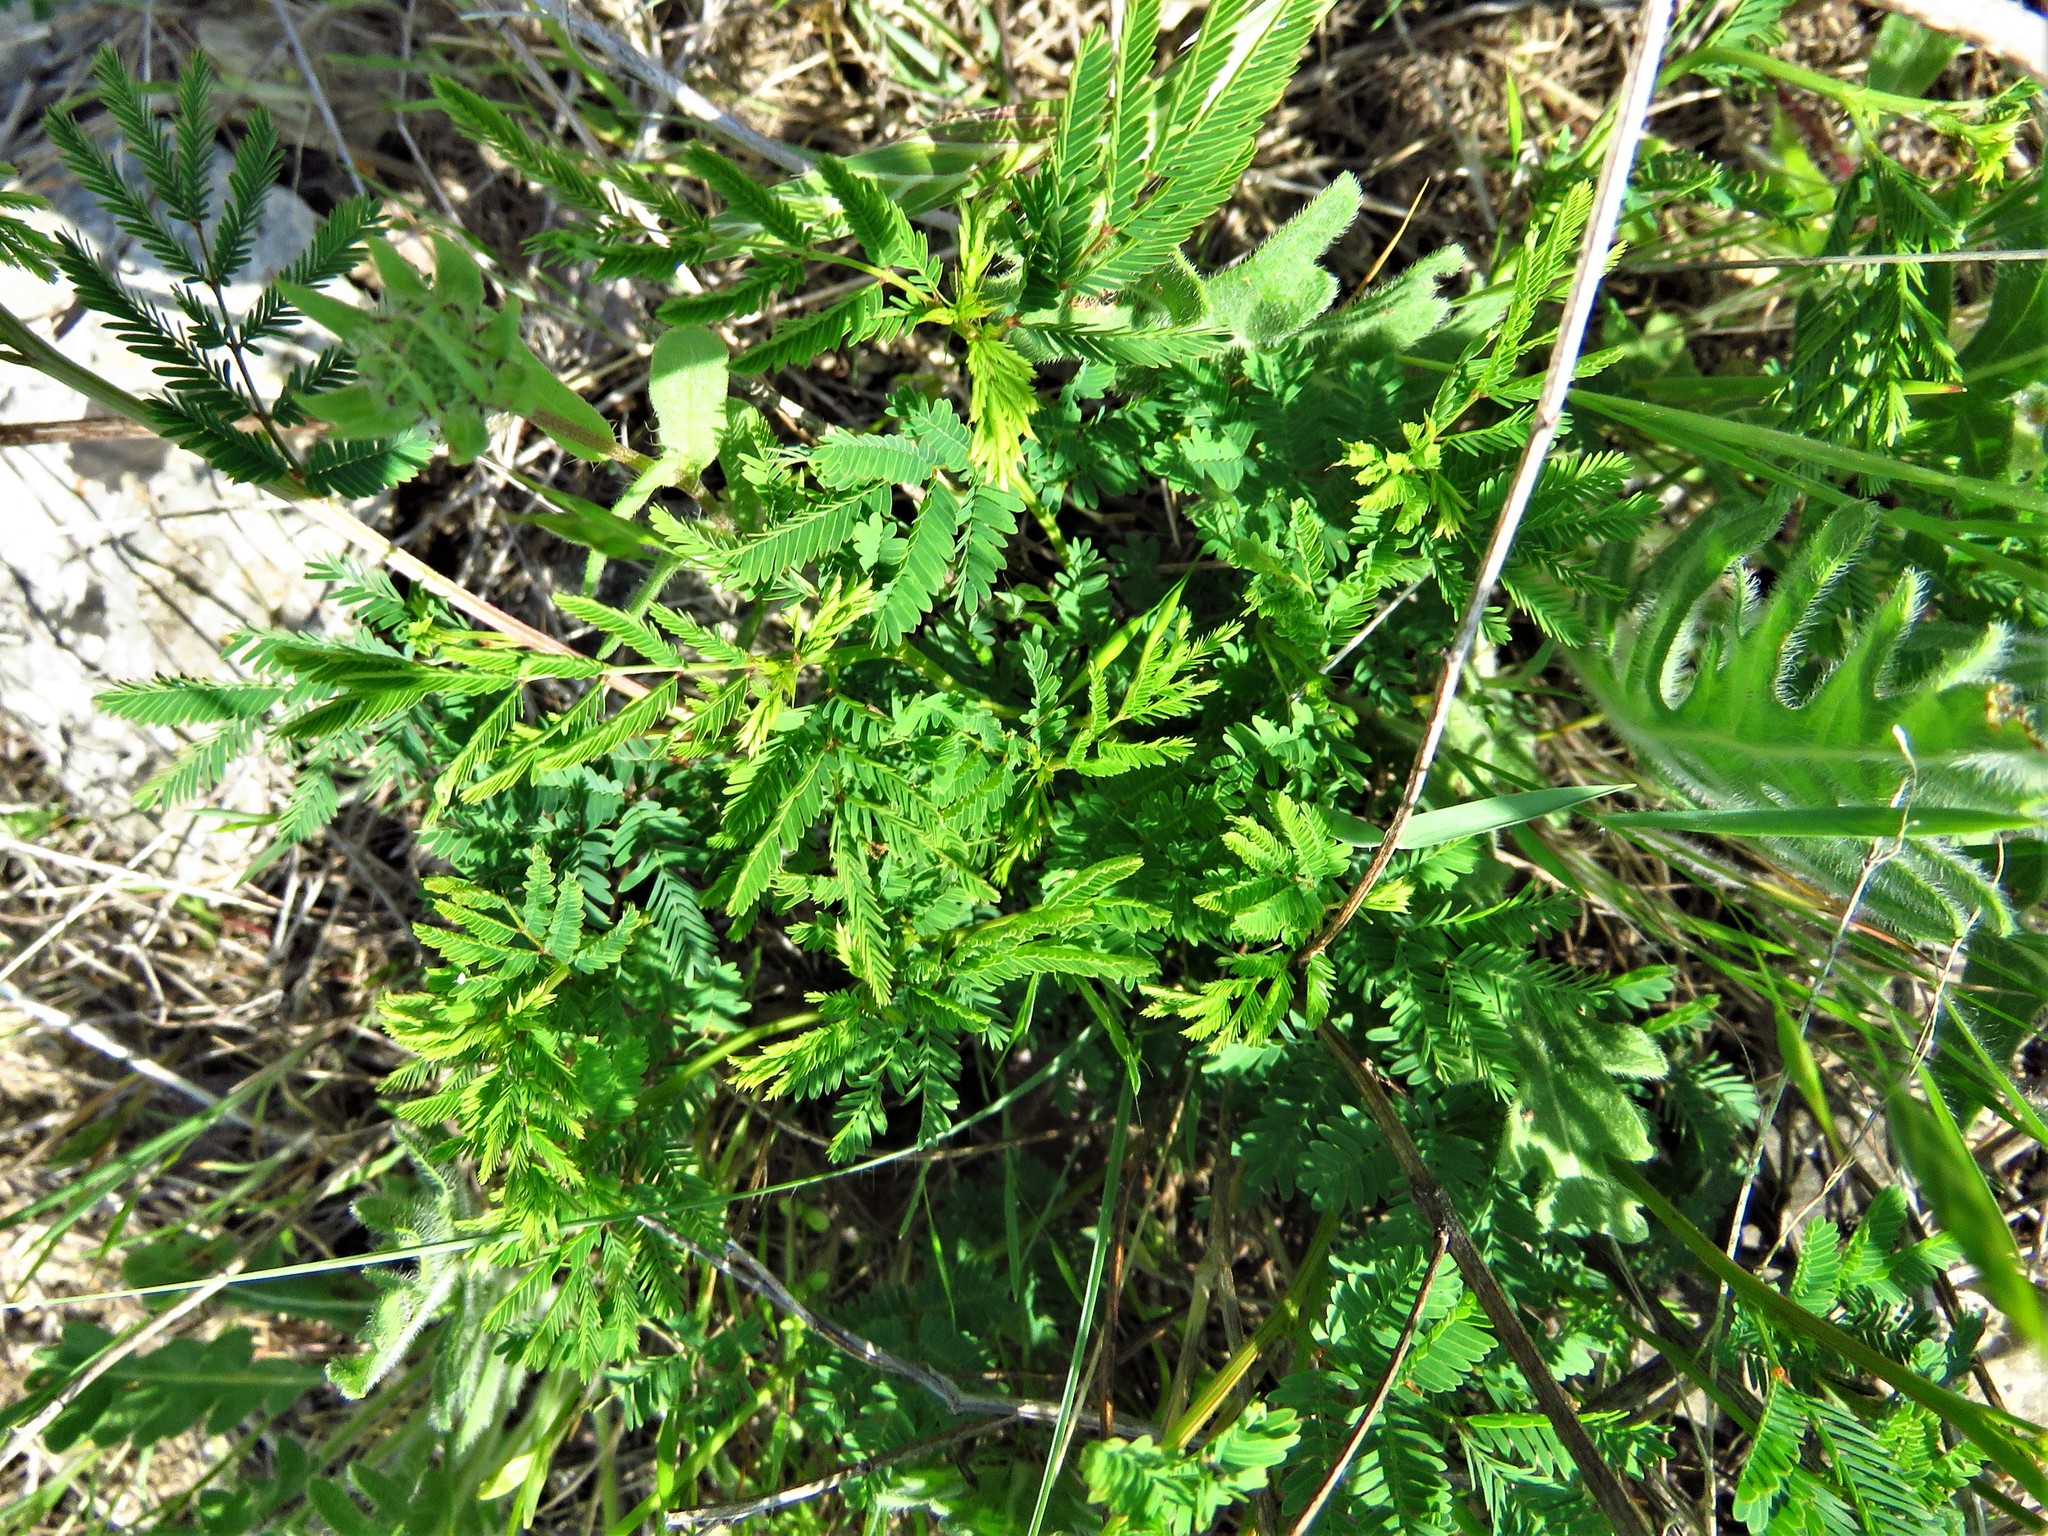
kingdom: Plantae
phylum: Tracheophyta
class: Magnoliopsida
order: Fabales
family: Fabaceae
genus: Desmanthus
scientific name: Desmanthus illinoensis
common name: Illinois bundle-flower
